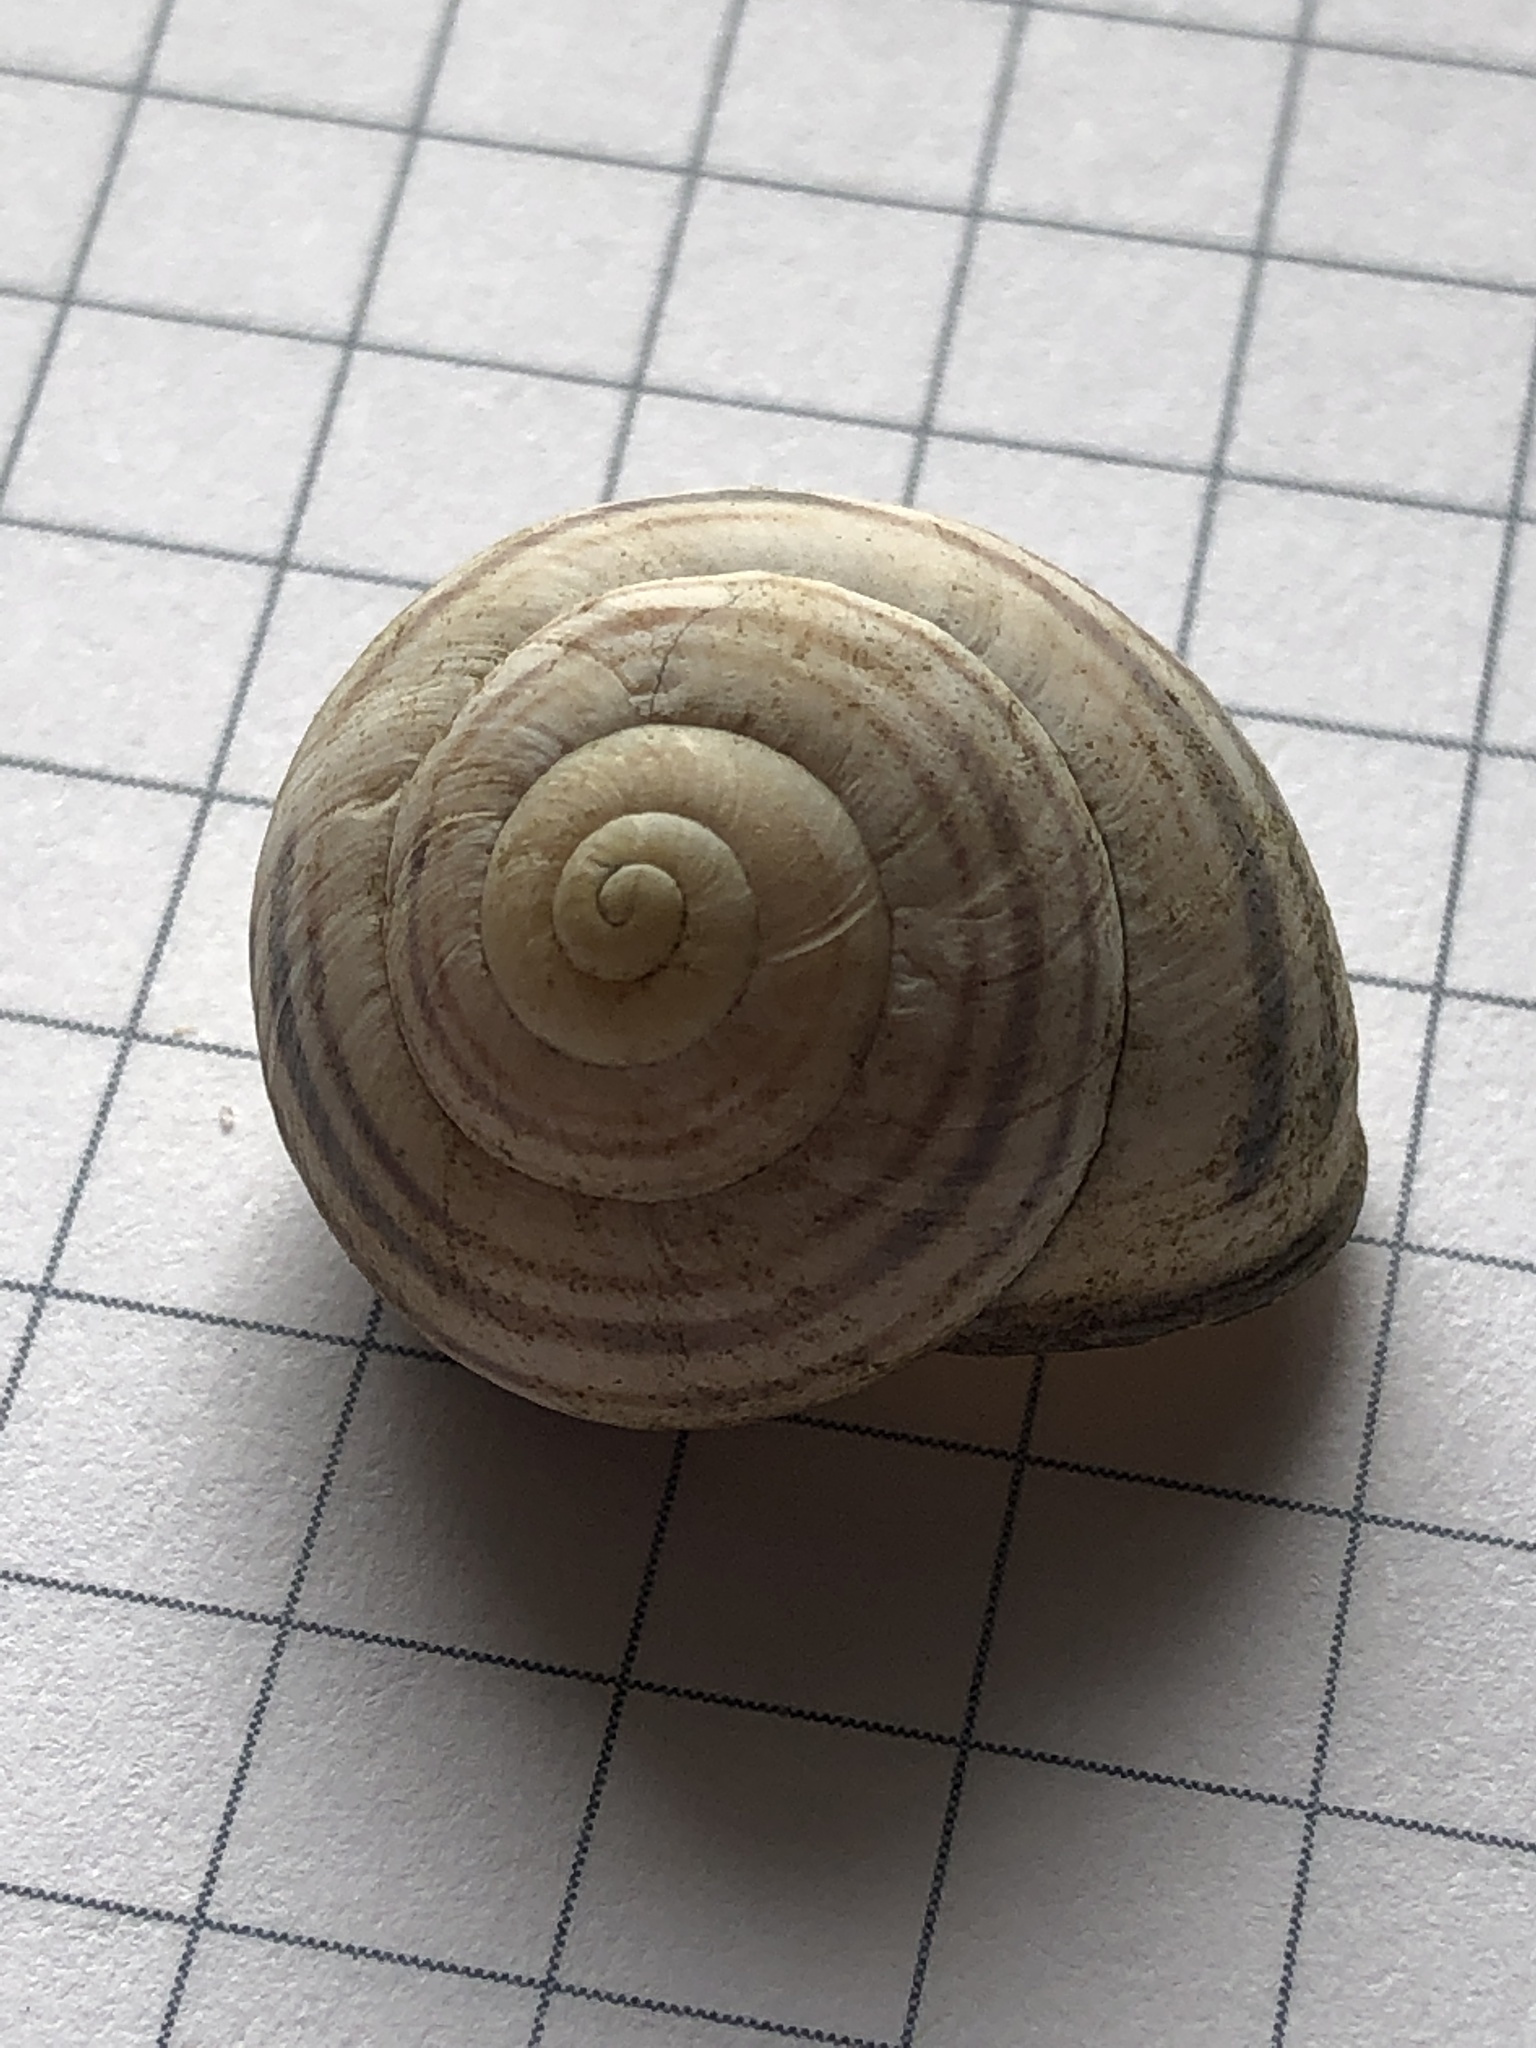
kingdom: Animalia
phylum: Mollusca
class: Gastropoda
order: Stylommatophora
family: Helicidae
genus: Cepaea
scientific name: Cepaea nemoralis
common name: Grovesnail
